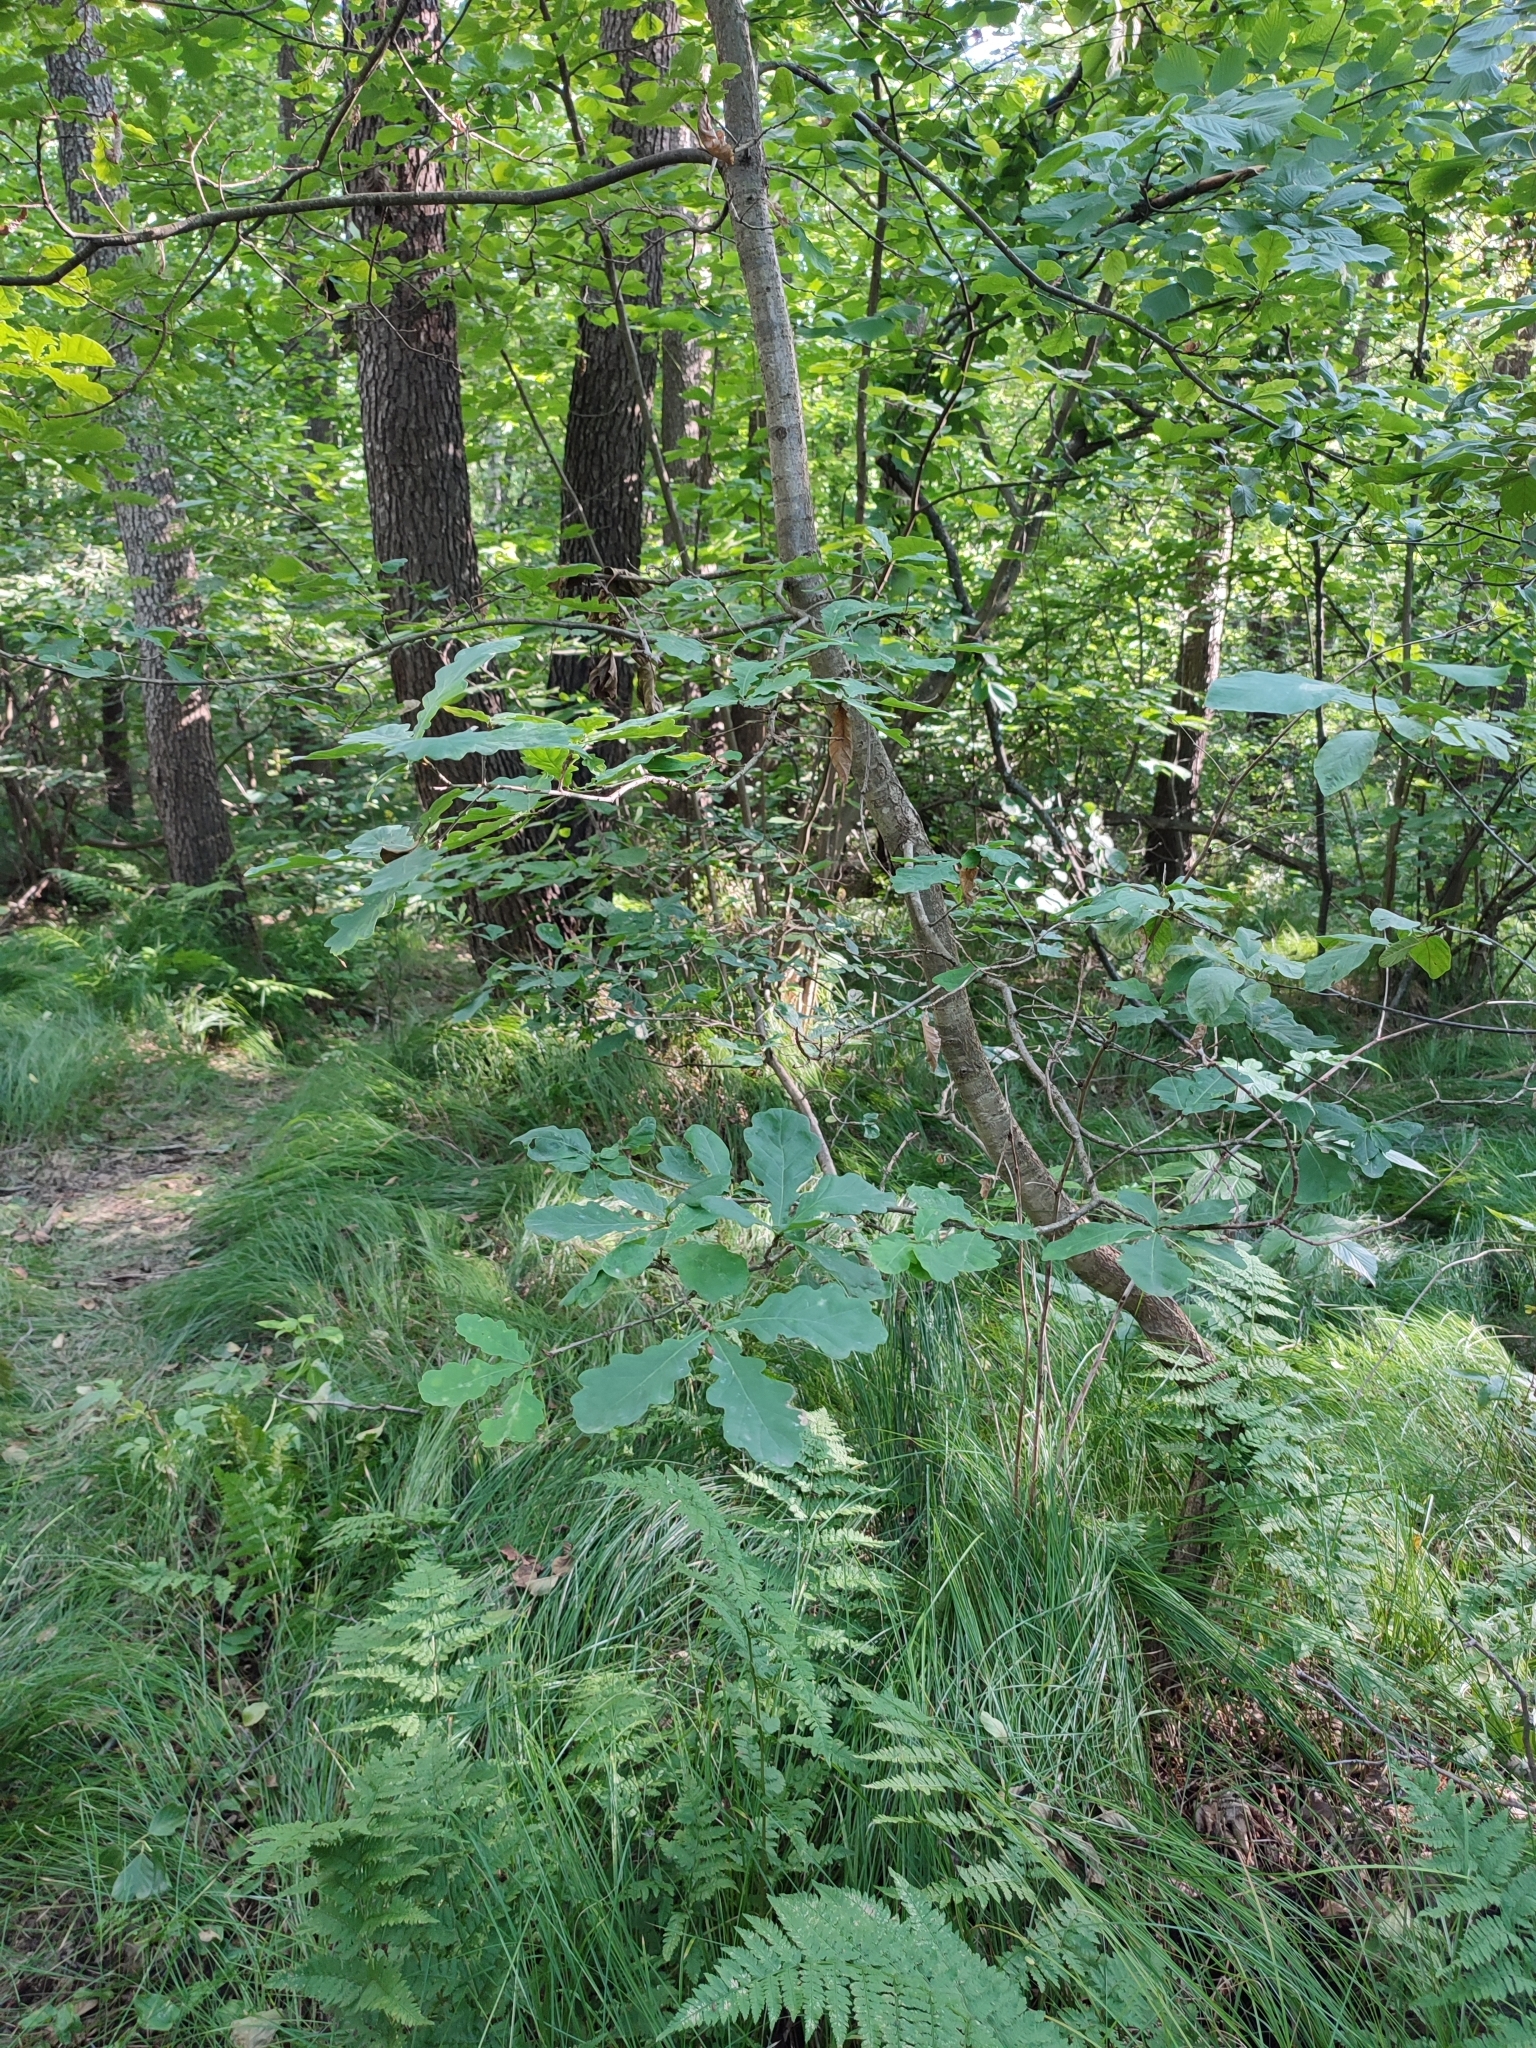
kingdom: Plantae
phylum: Tracheophyta
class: Magnoliopsida
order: Fagales
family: Fagaceae
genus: Quercus
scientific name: Quercus robur
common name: Pedunculate oak
